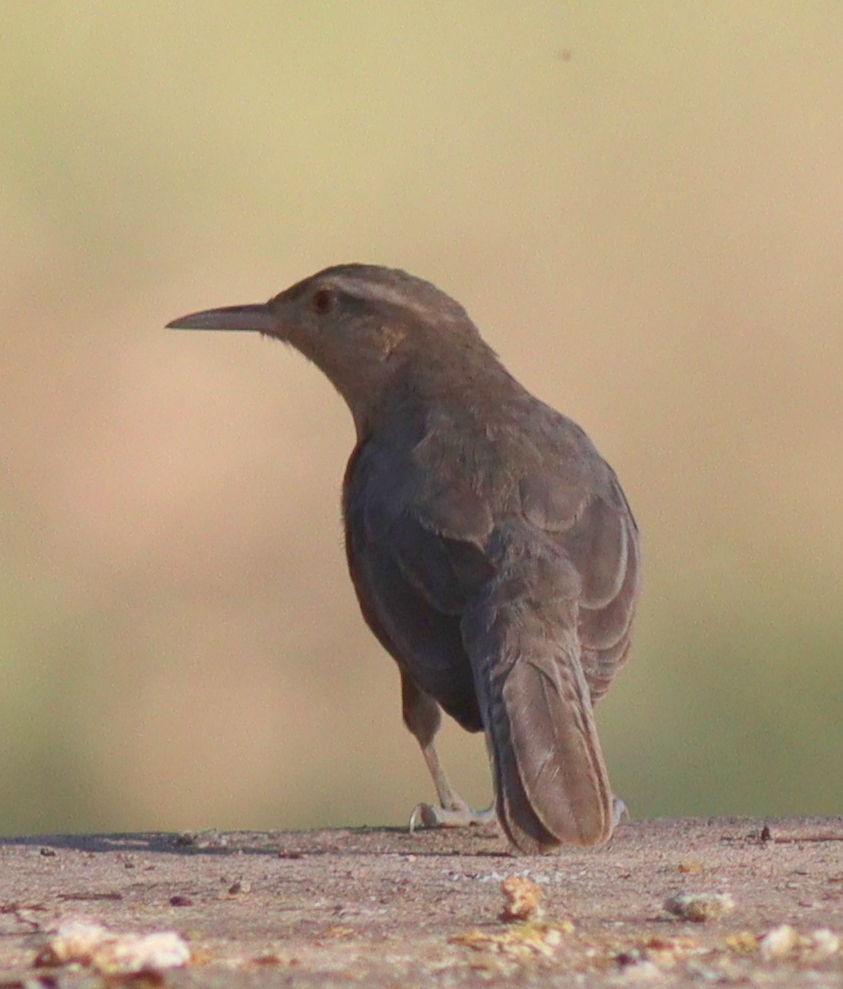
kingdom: Animalia
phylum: Chordata
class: Aves
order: Passeriformes
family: Troglodytidae
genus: Campylorhynchus
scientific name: Campylorhynchus turdinus
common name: Thrush-like wren
